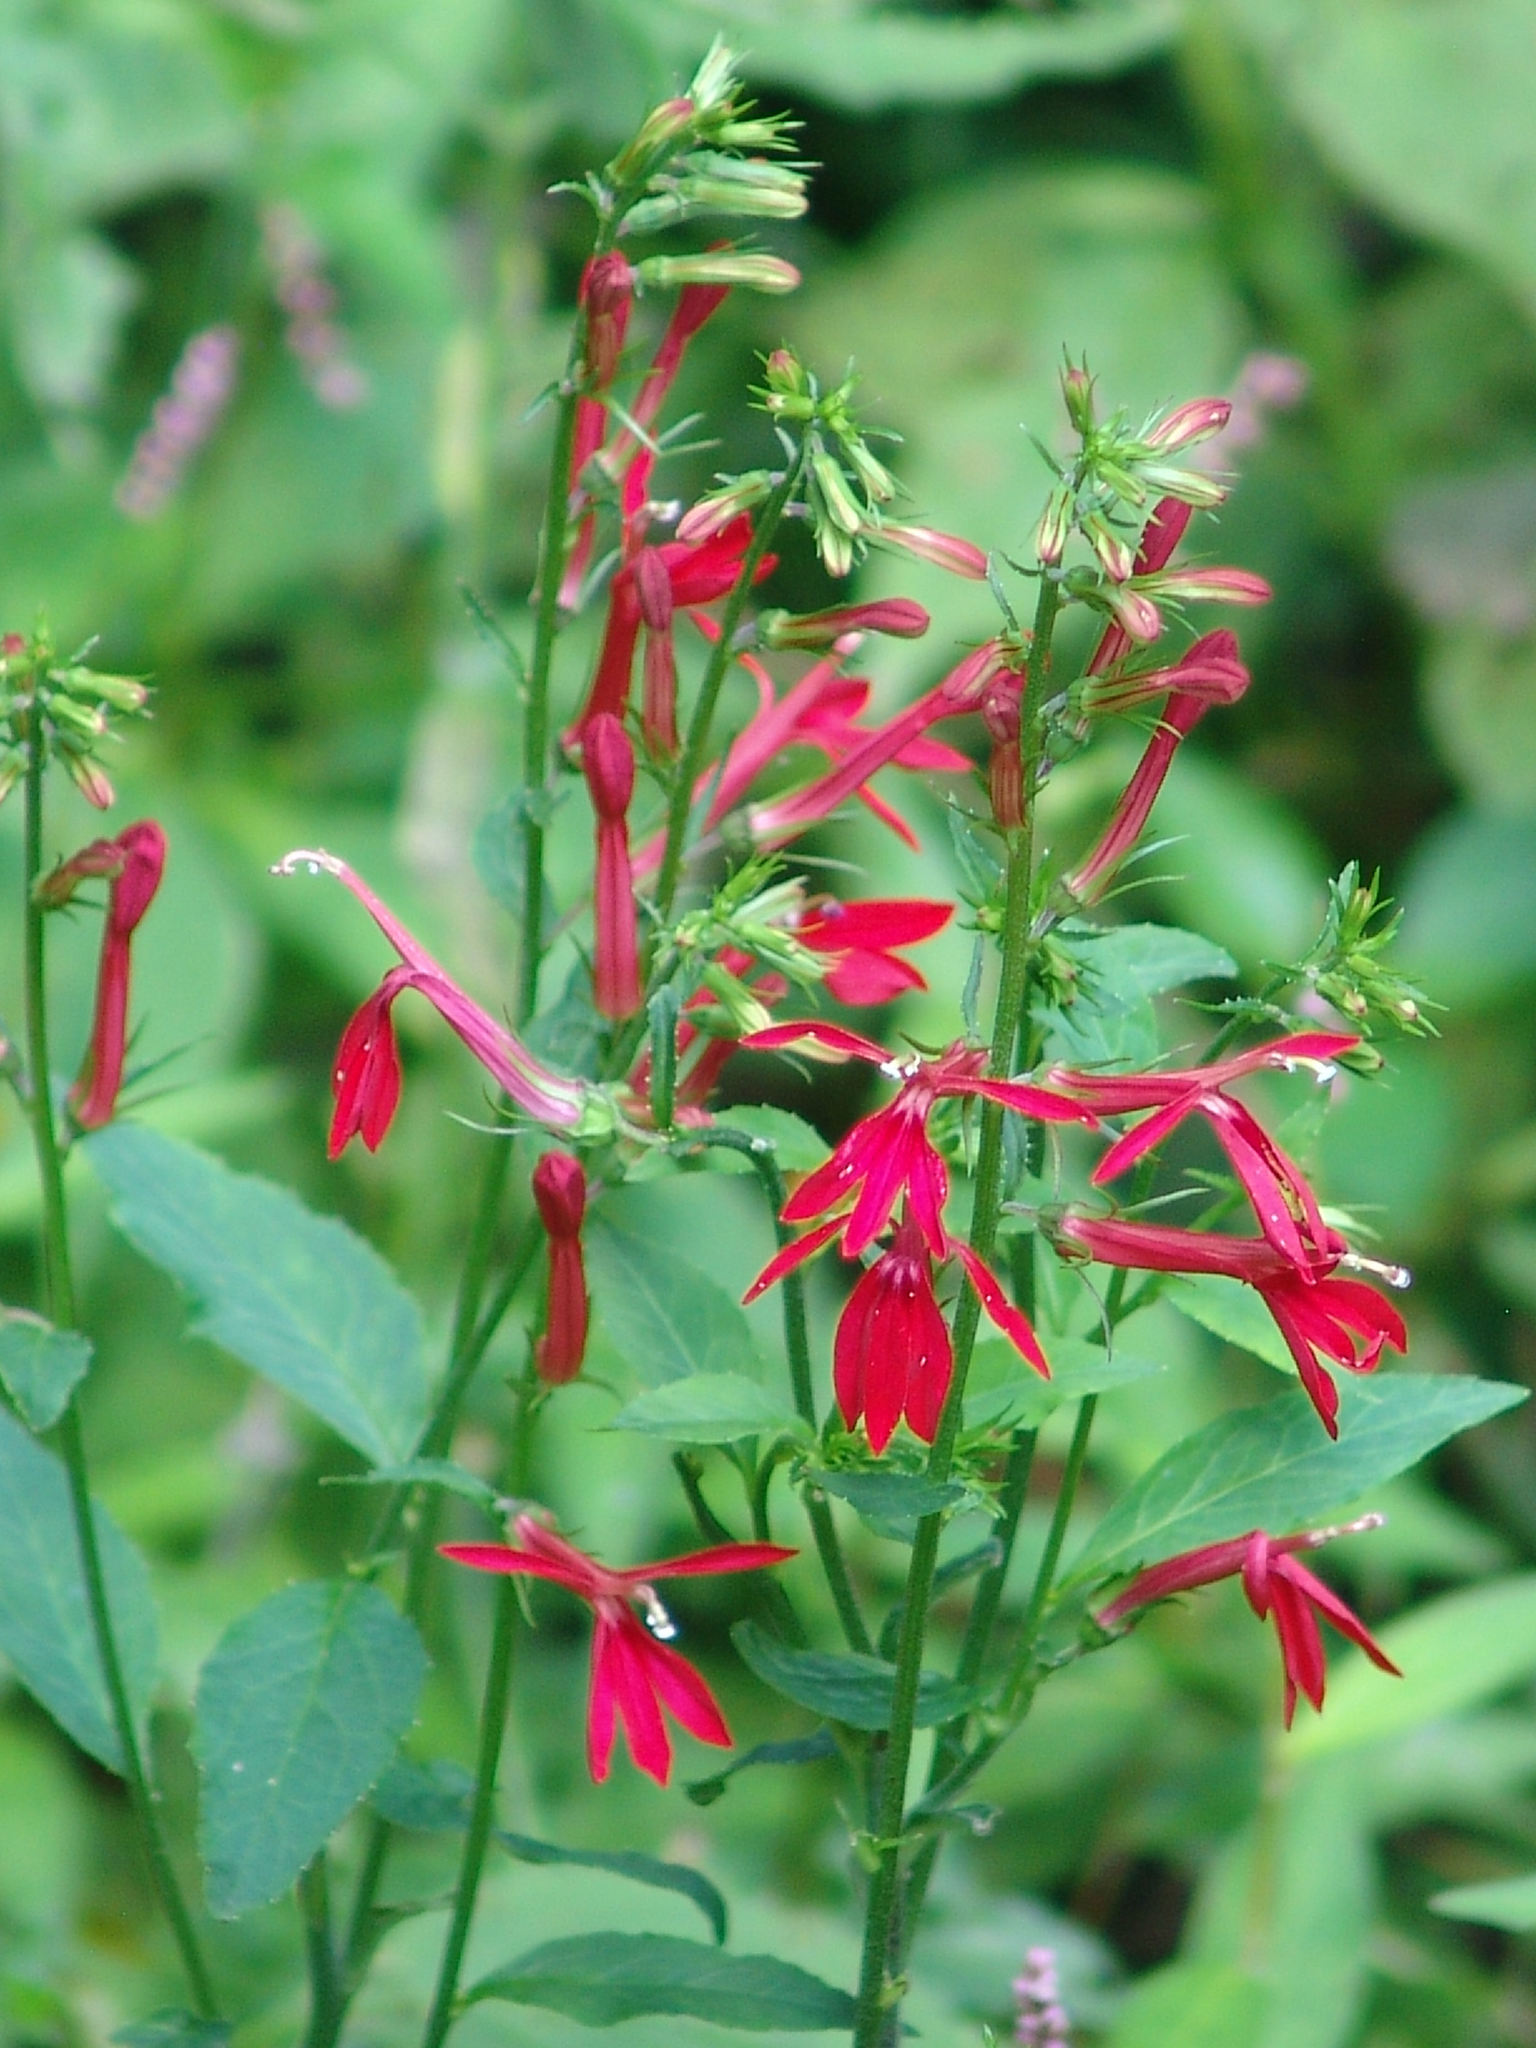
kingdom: Plantae
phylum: Tracheophyta
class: Magnoliopsida
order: Asterales
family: Campanulaceae
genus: Lobelia
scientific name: Lobelia cardinalis
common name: Cardinal flower
